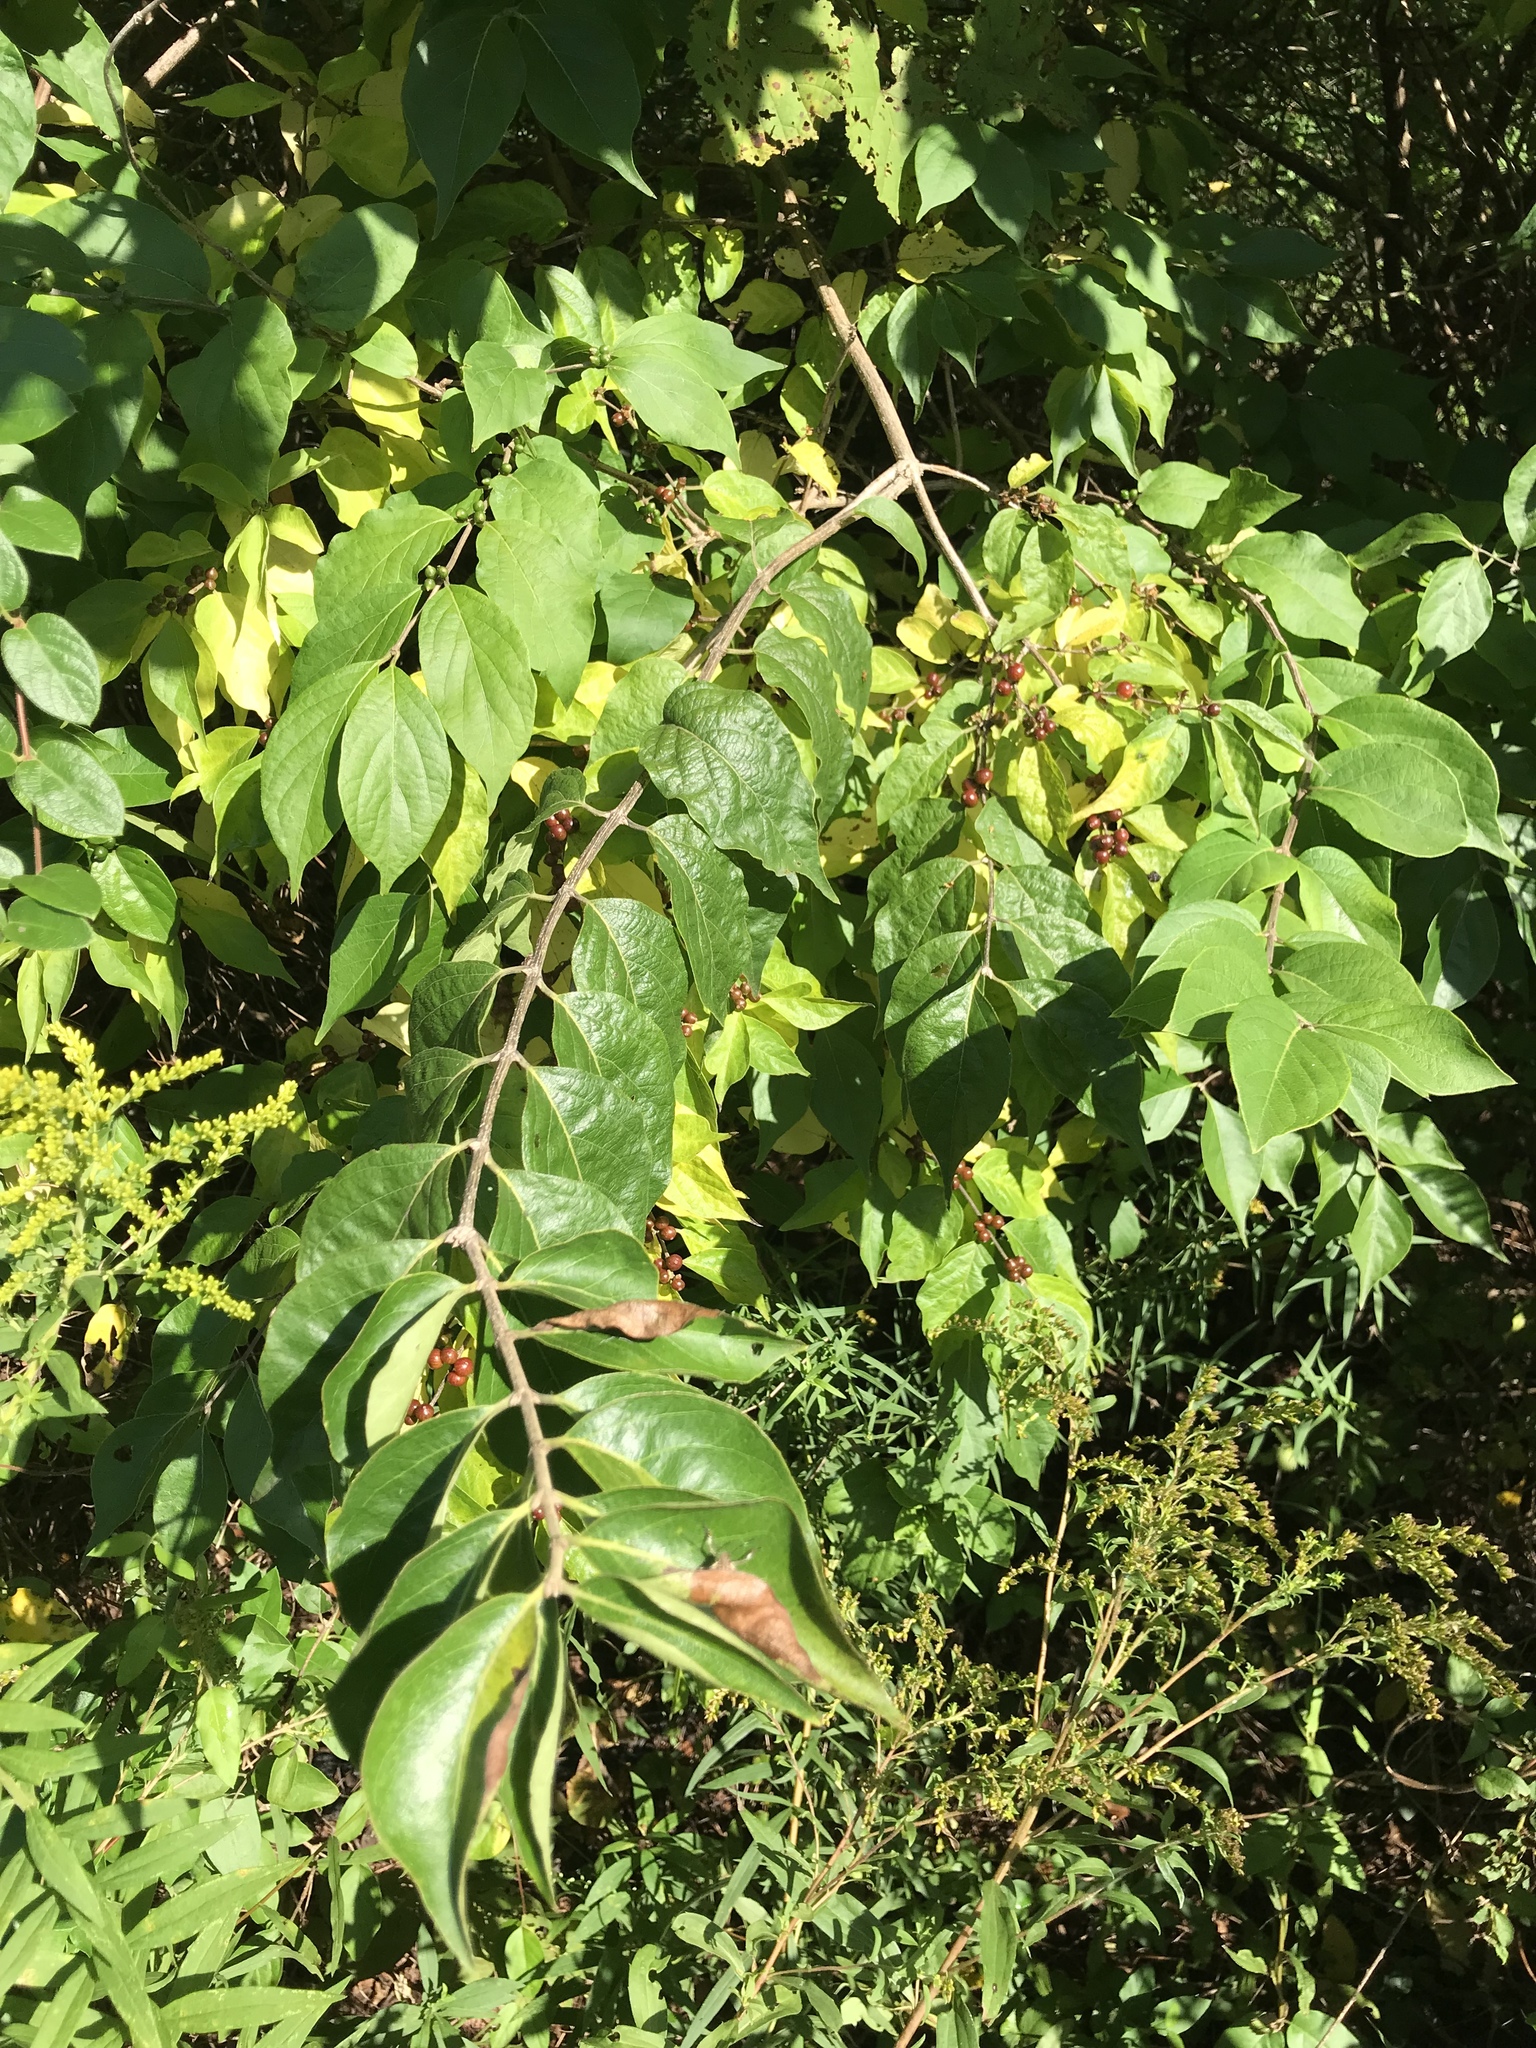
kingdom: Plantae
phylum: Tracheophyta
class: Magnoliopsida
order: Dipsacales
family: Caprifoliaceae
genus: Lonicera
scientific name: Lonicera maackii
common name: Amur honeysuckle
